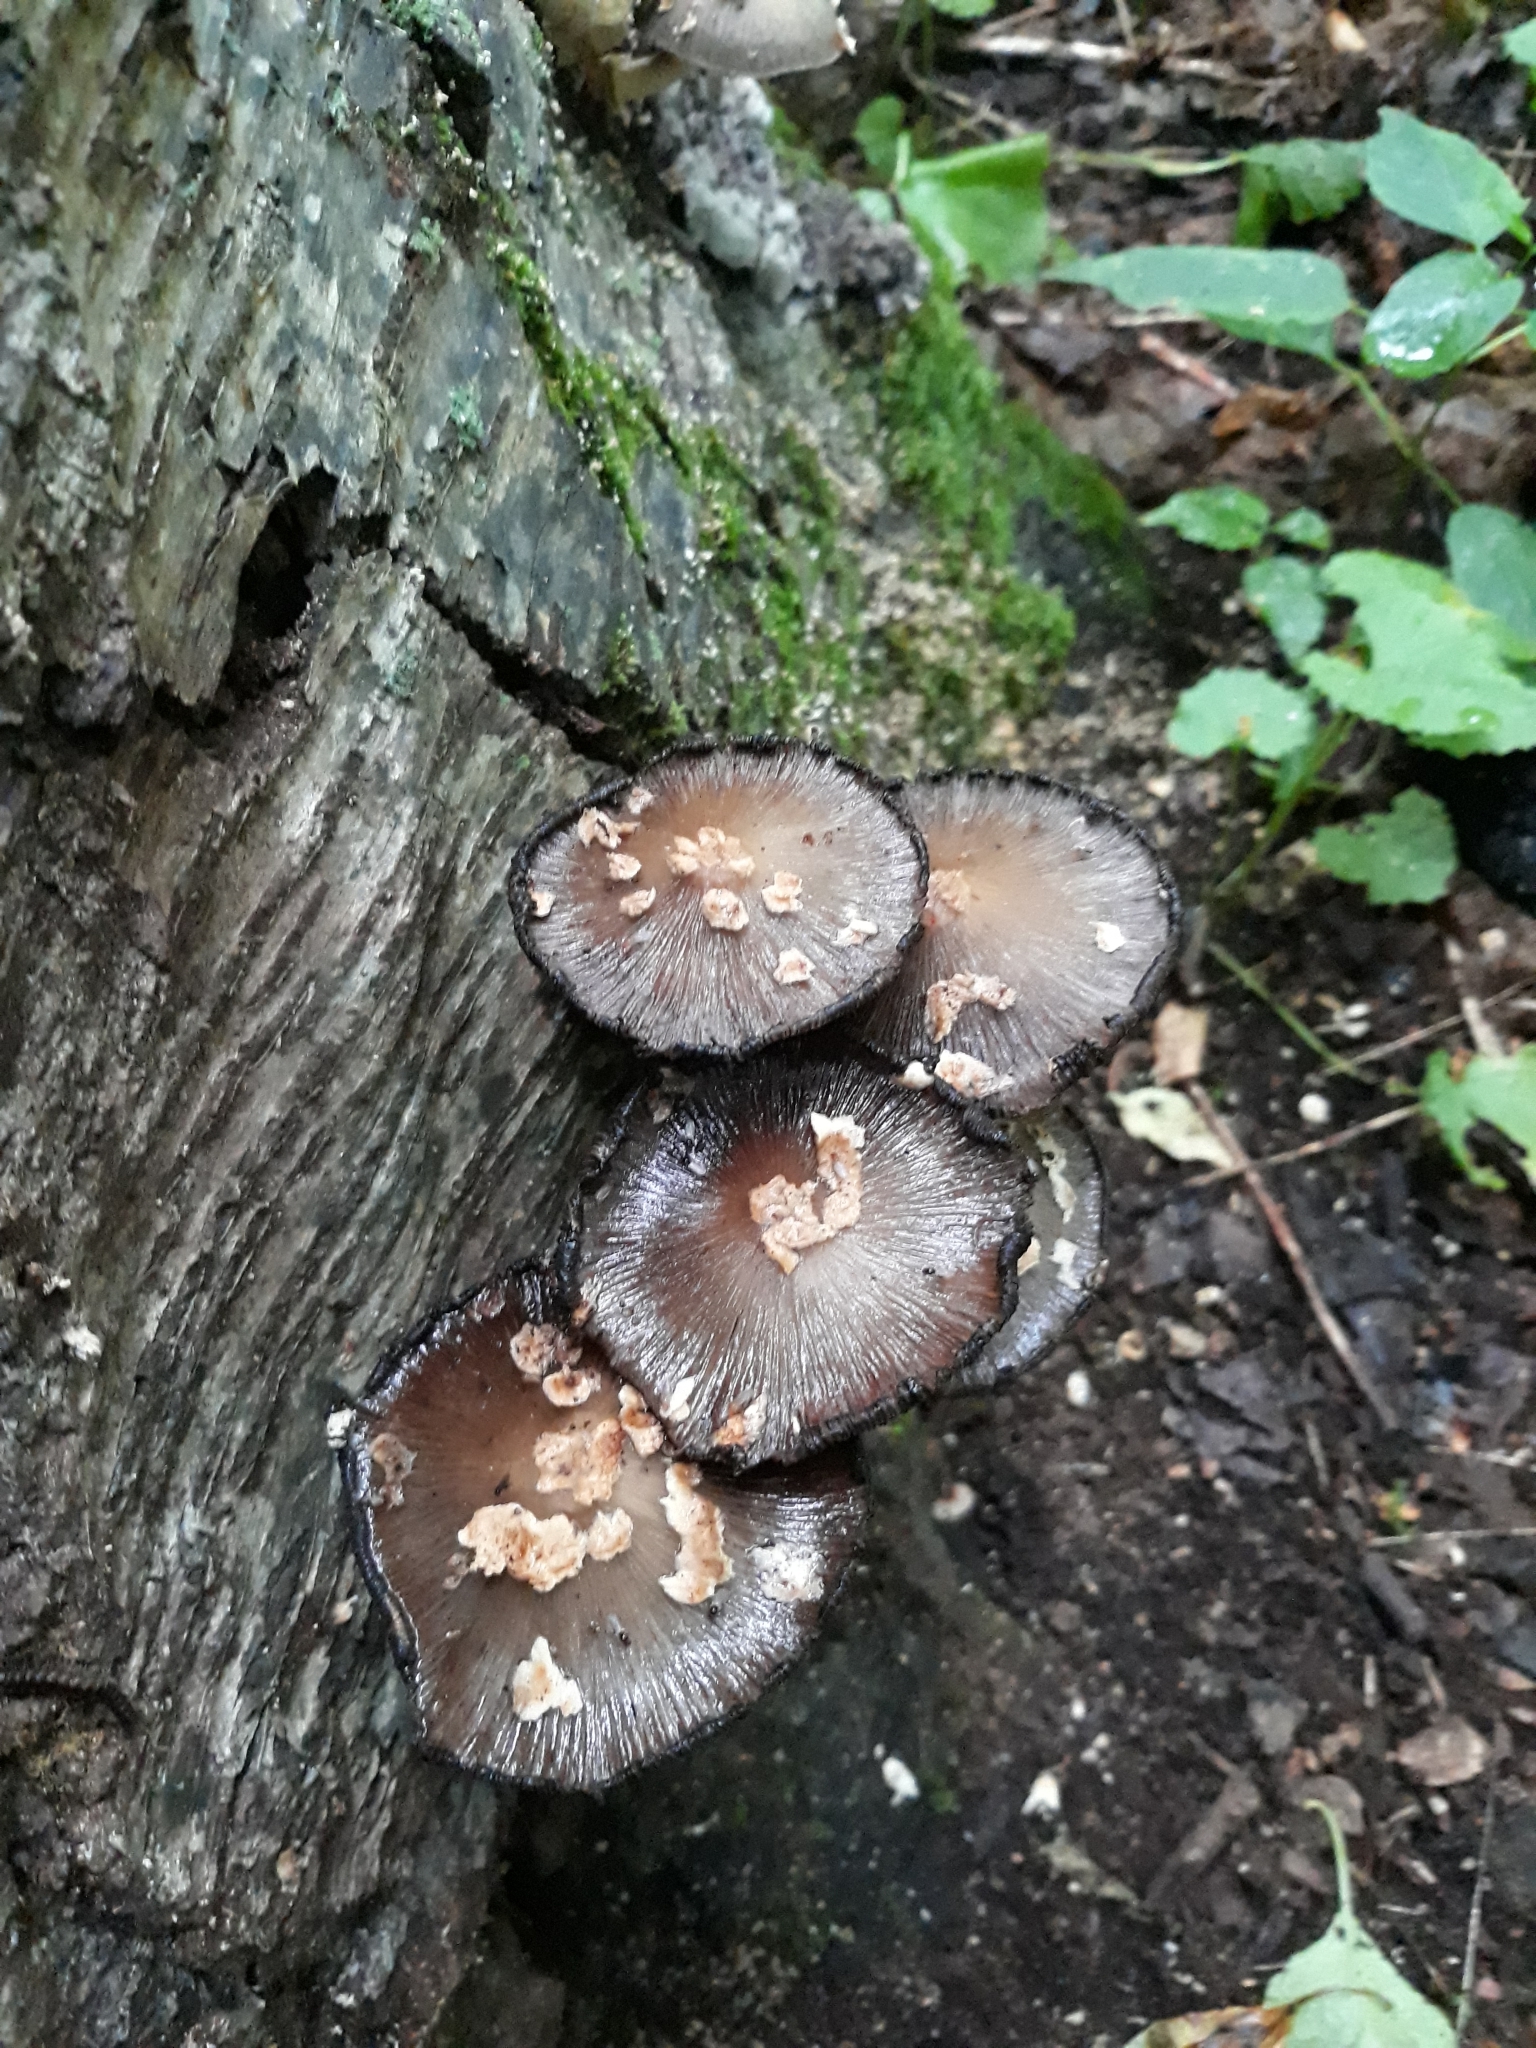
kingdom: Fungi
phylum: Basidiomycota
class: Agaricomycetes
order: Agaricales
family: Psathyrellaceae
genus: Coprinopsis
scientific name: Coprinopsis variegata
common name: Scaly ink cap
